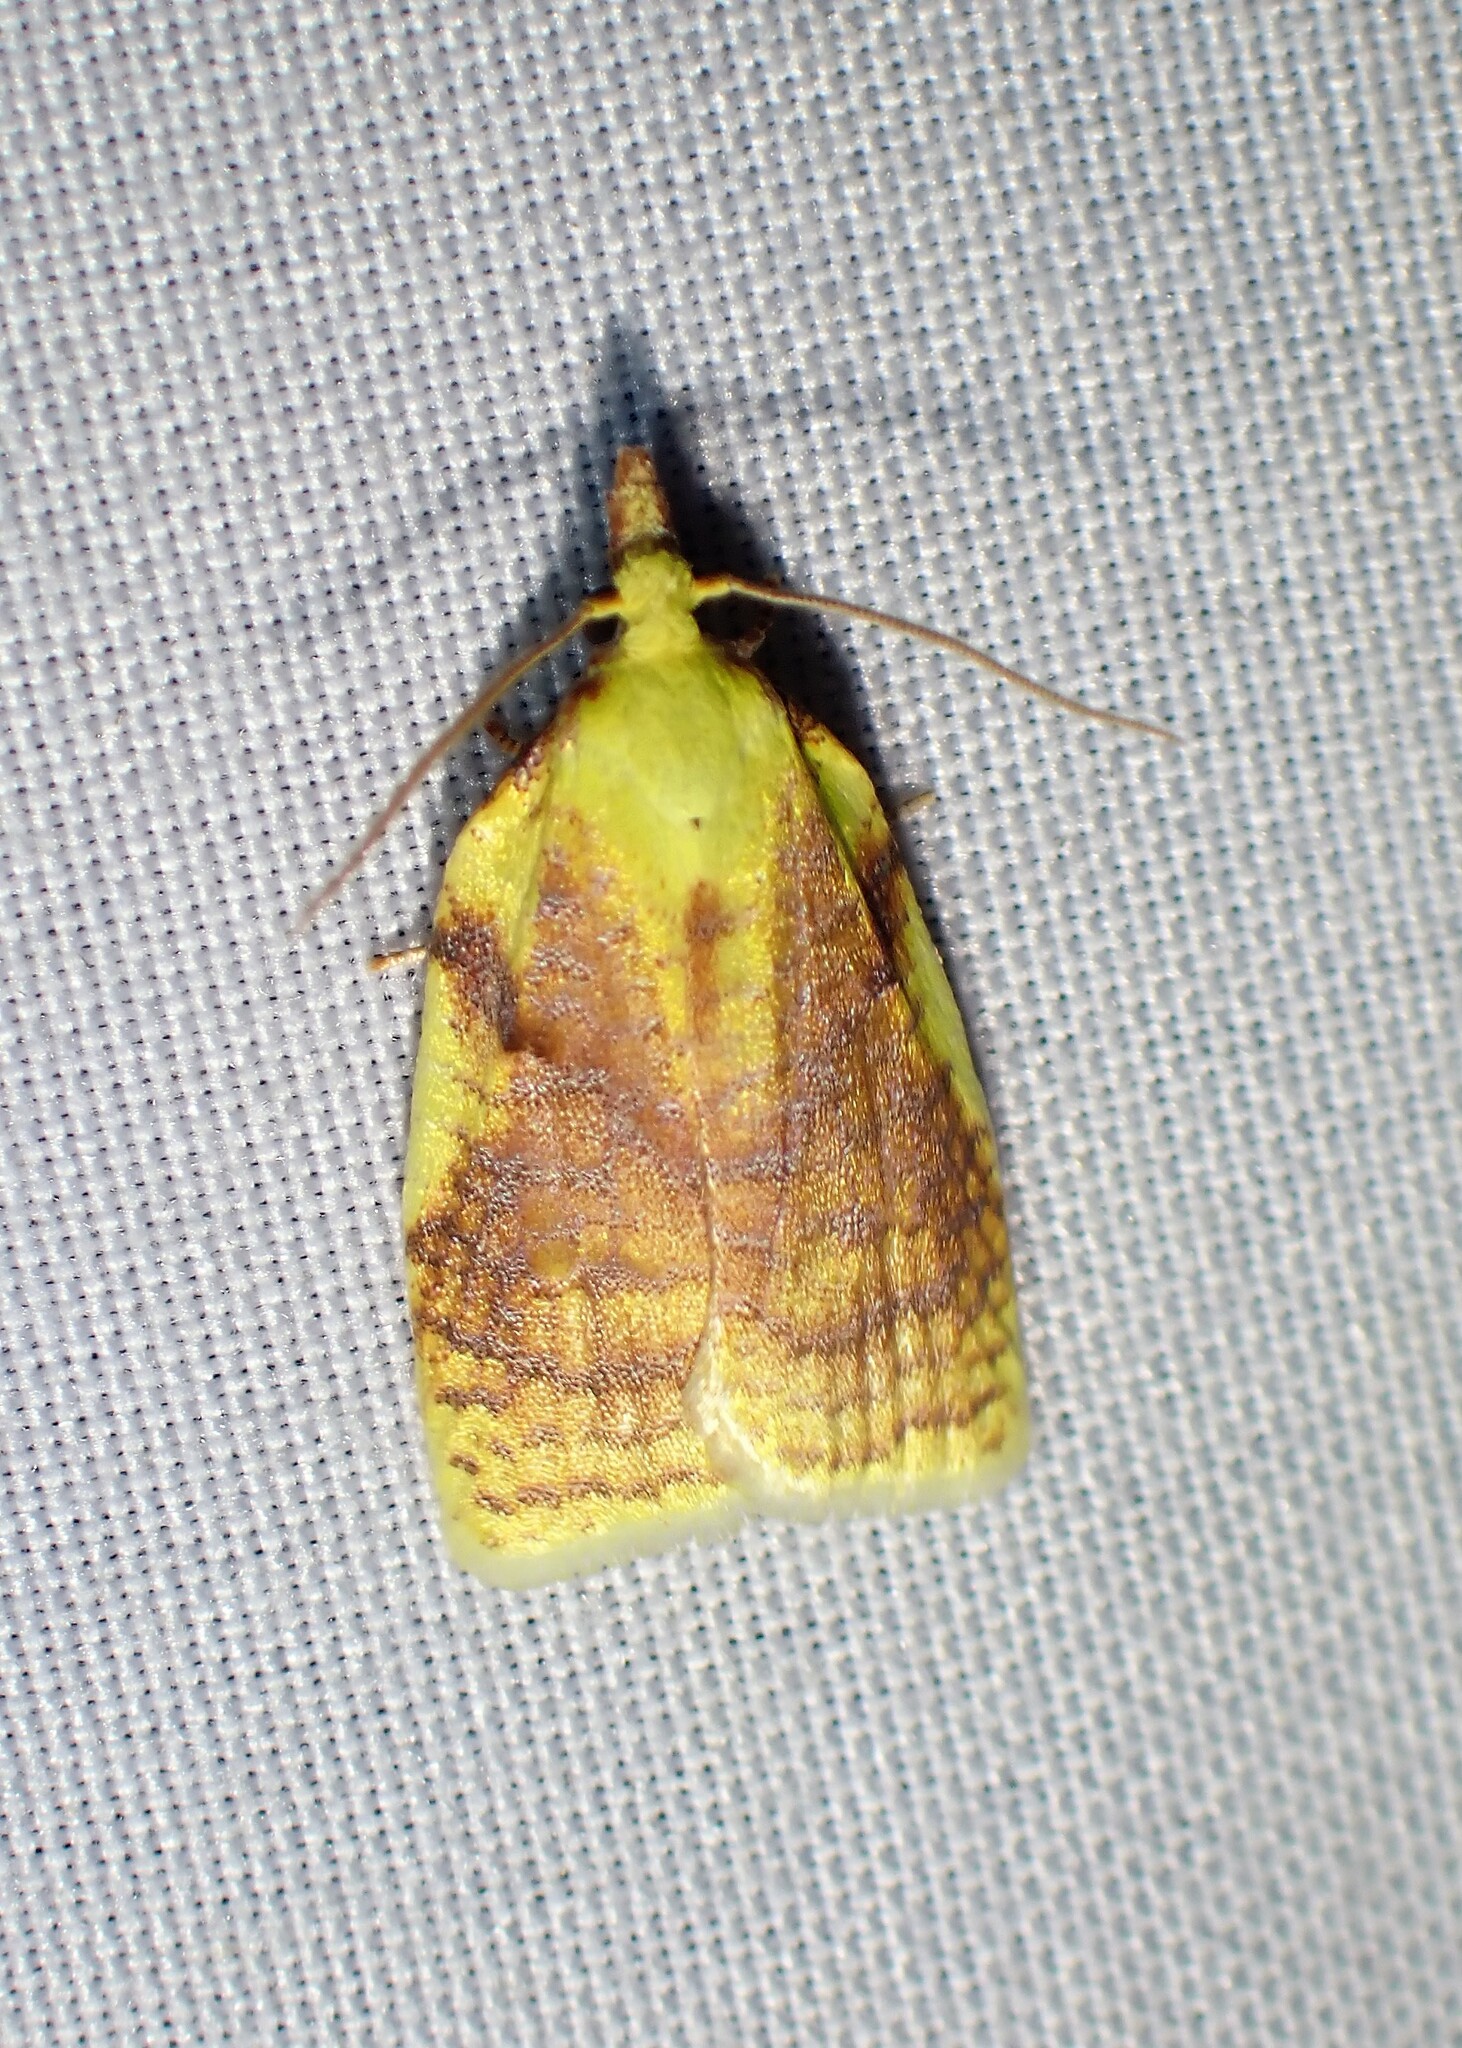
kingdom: Animalia
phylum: Arthropoda
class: Insecta
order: Lepidoptera
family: Tortricidae
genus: Cenopis
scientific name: Cenopis pettitana
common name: Maple-basswood leafroller moth
